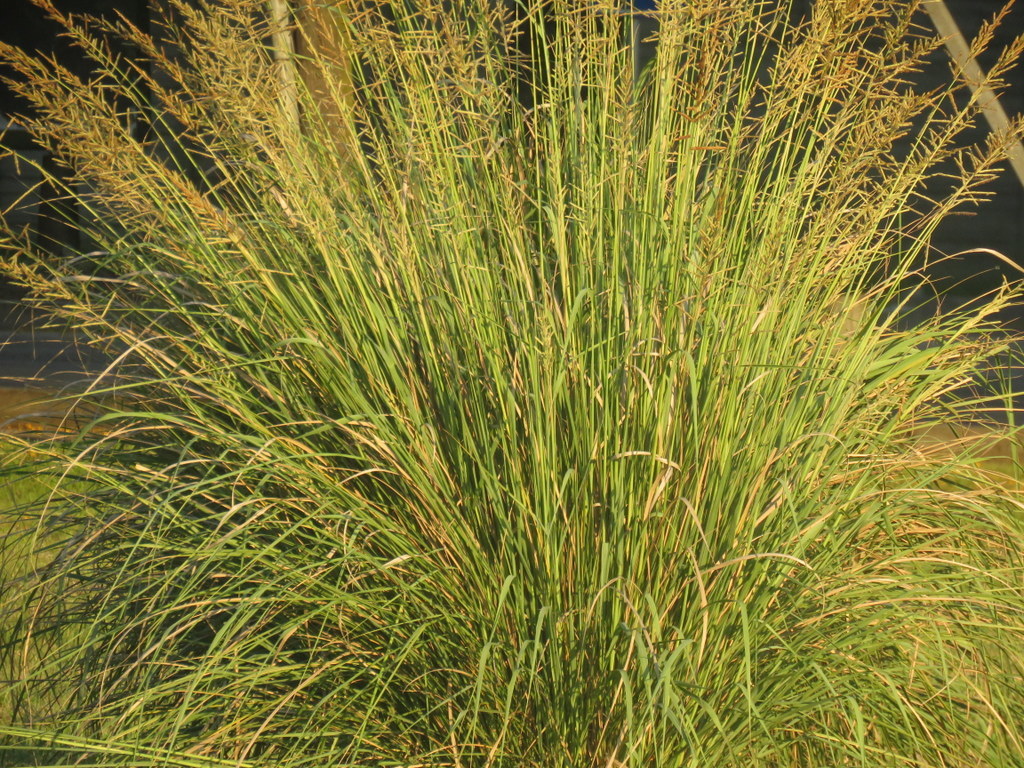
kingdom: Plantae
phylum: Tracheophyta
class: Liliopsida
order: Poales
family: Poaceae
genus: Paspalum
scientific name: Paspalum quadrifarium
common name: Tussock paspalum
